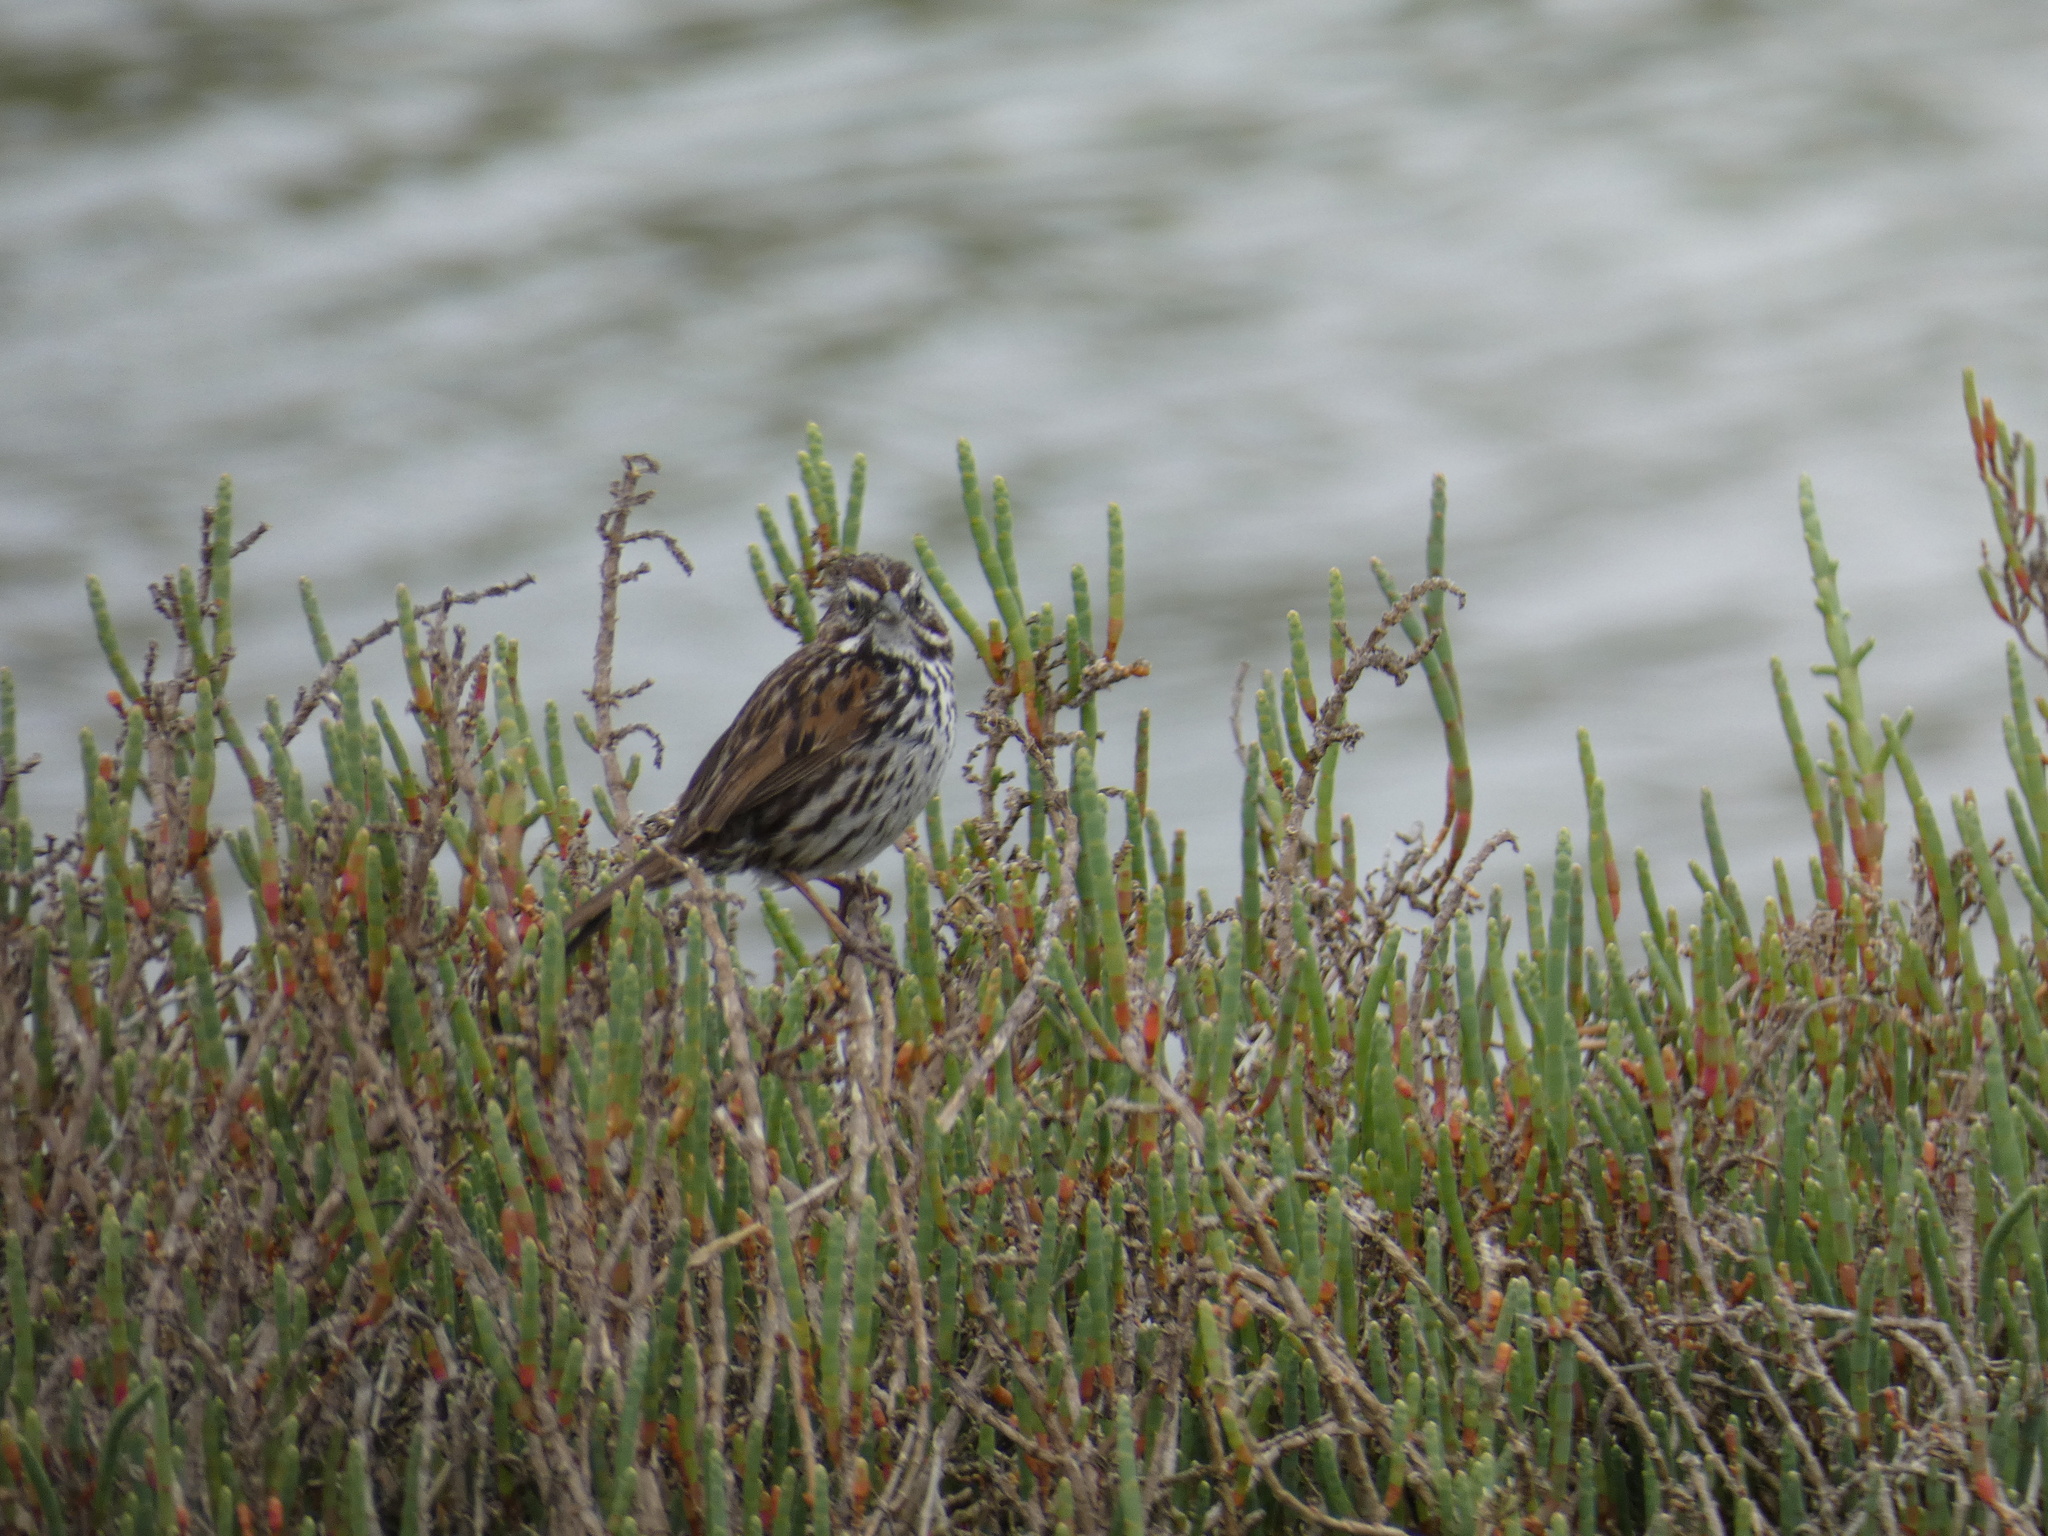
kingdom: Animalia
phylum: Chordata
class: Aves
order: Passeriformes
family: Passerellidae
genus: Melospiza
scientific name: Melospiza melodia
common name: Song sparrow
